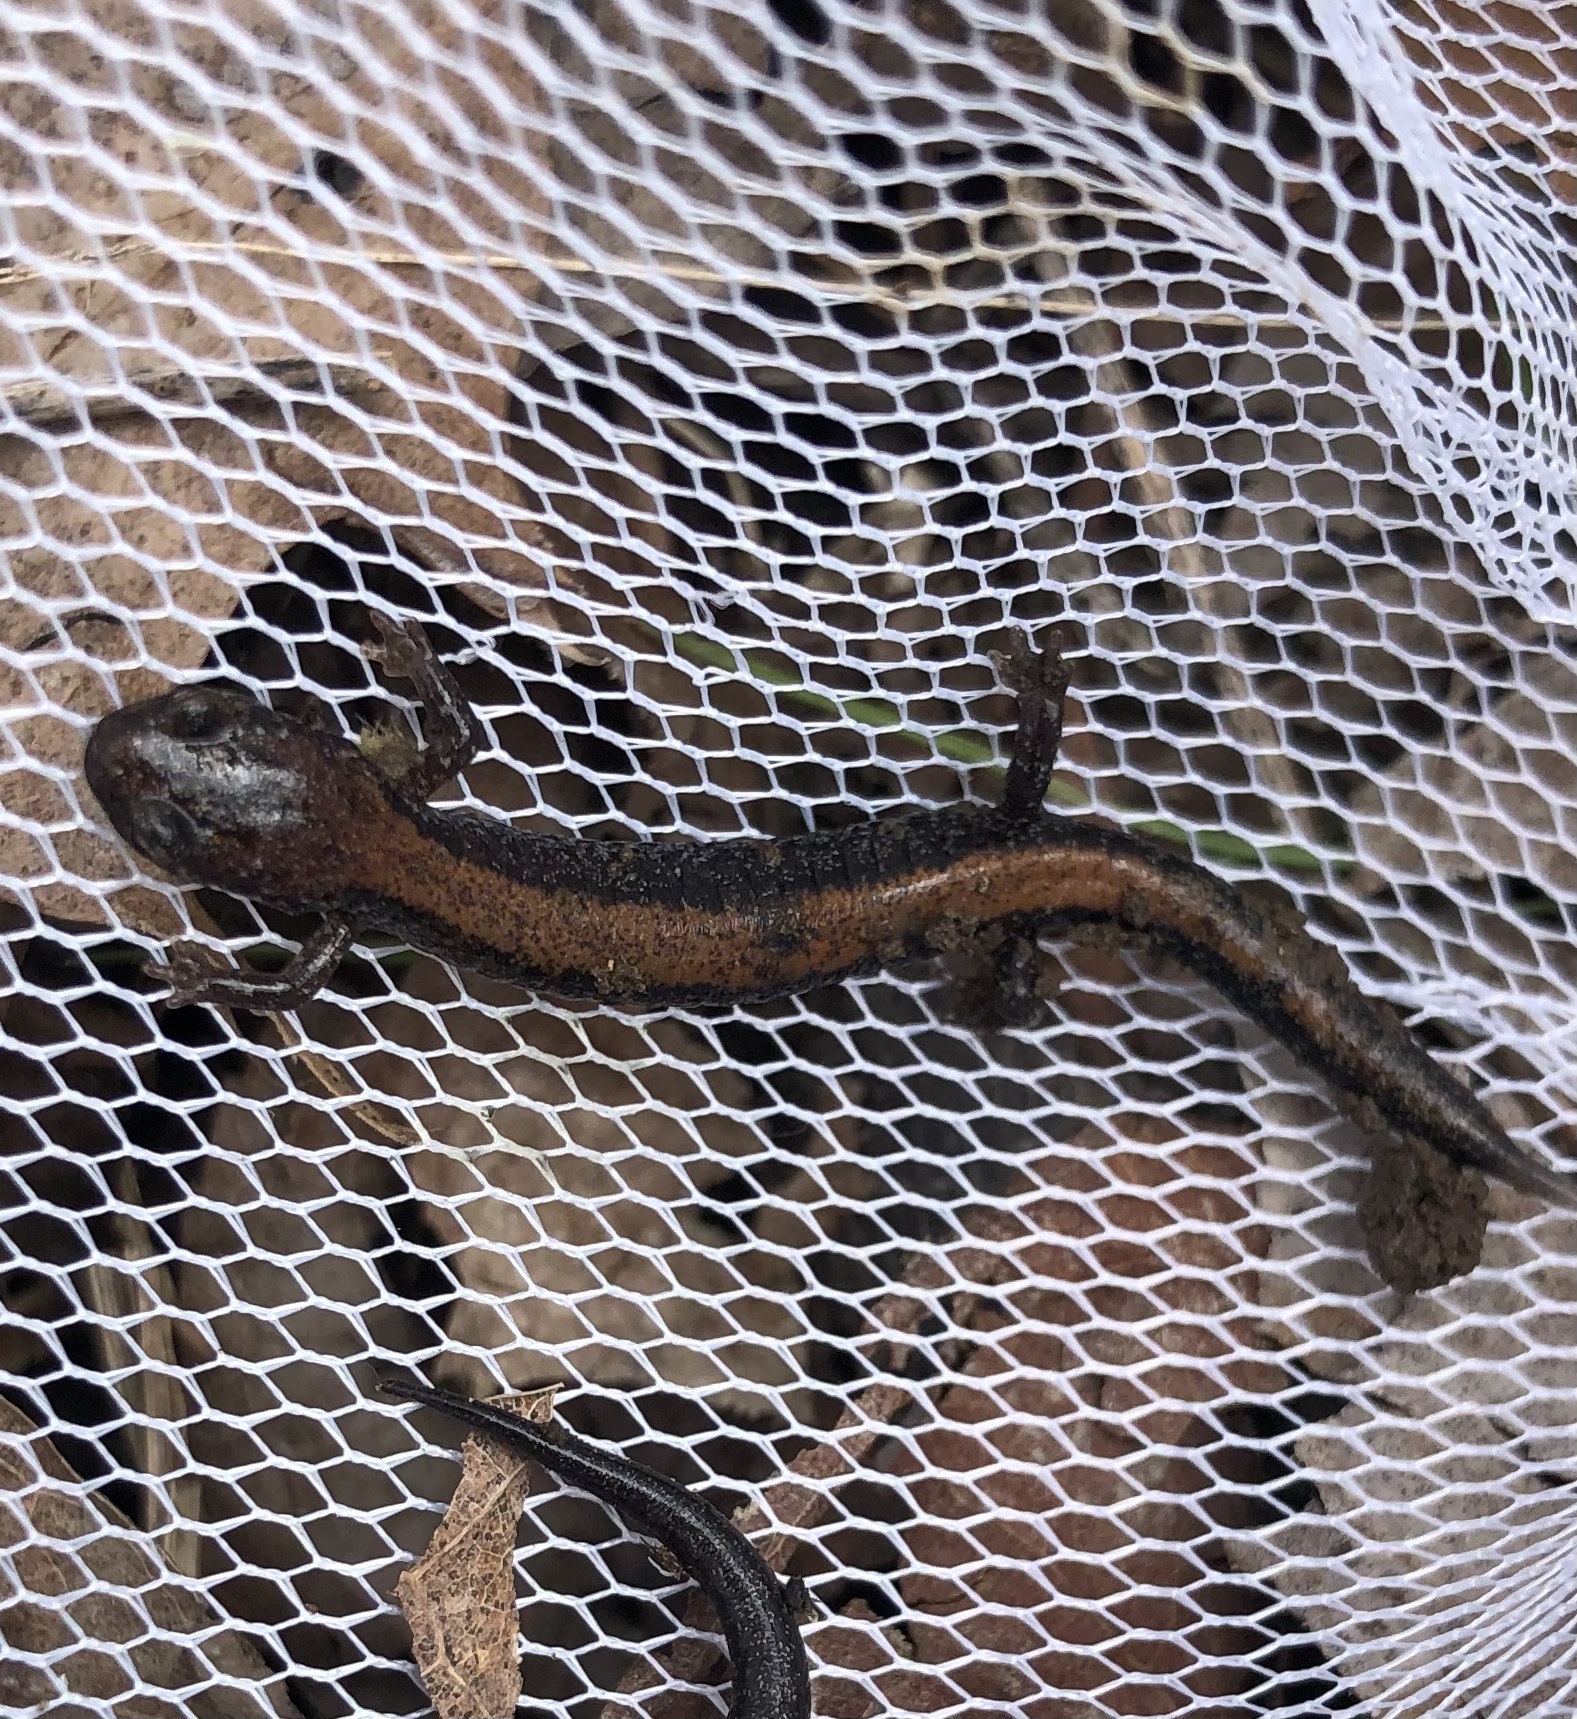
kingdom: Animalia
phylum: Chordata
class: Amphibia
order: Caudata
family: Plethodontidae
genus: Plethodon
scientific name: Plethodon cinereus
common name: Redback salamander
